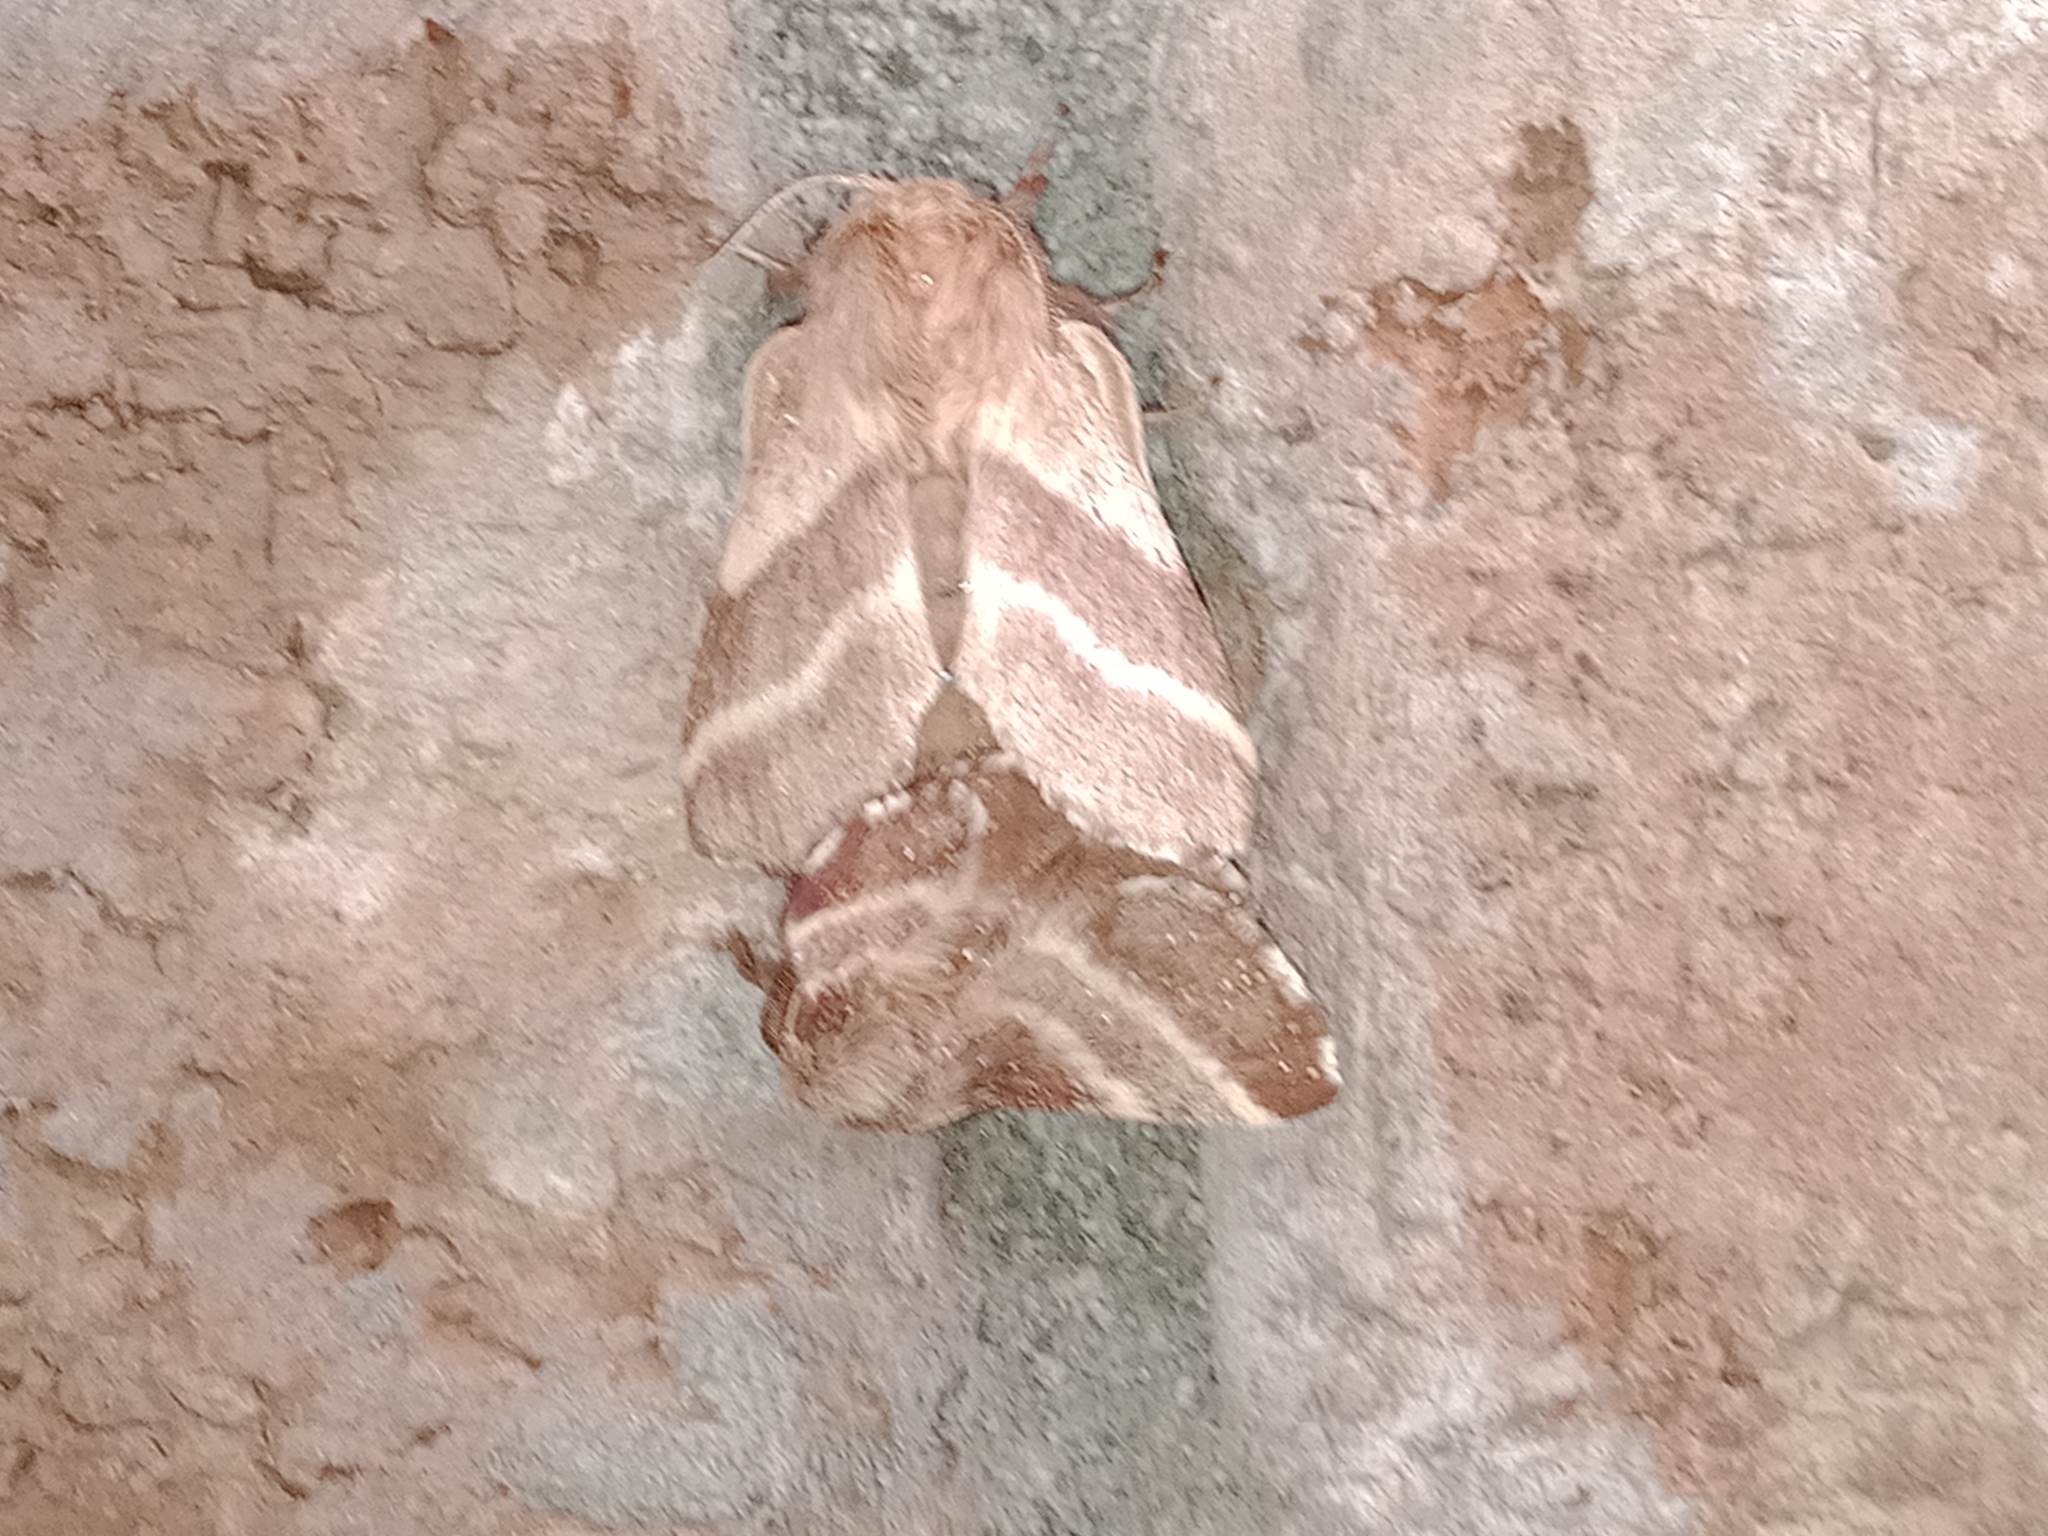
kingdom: Animalia
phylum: Arthropoda
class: Insecta
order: Lepidoptera
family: Lasiocampidae
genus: Malacosoma
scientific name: Malacosoma americana
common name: Eastern tent caterpillar moth
